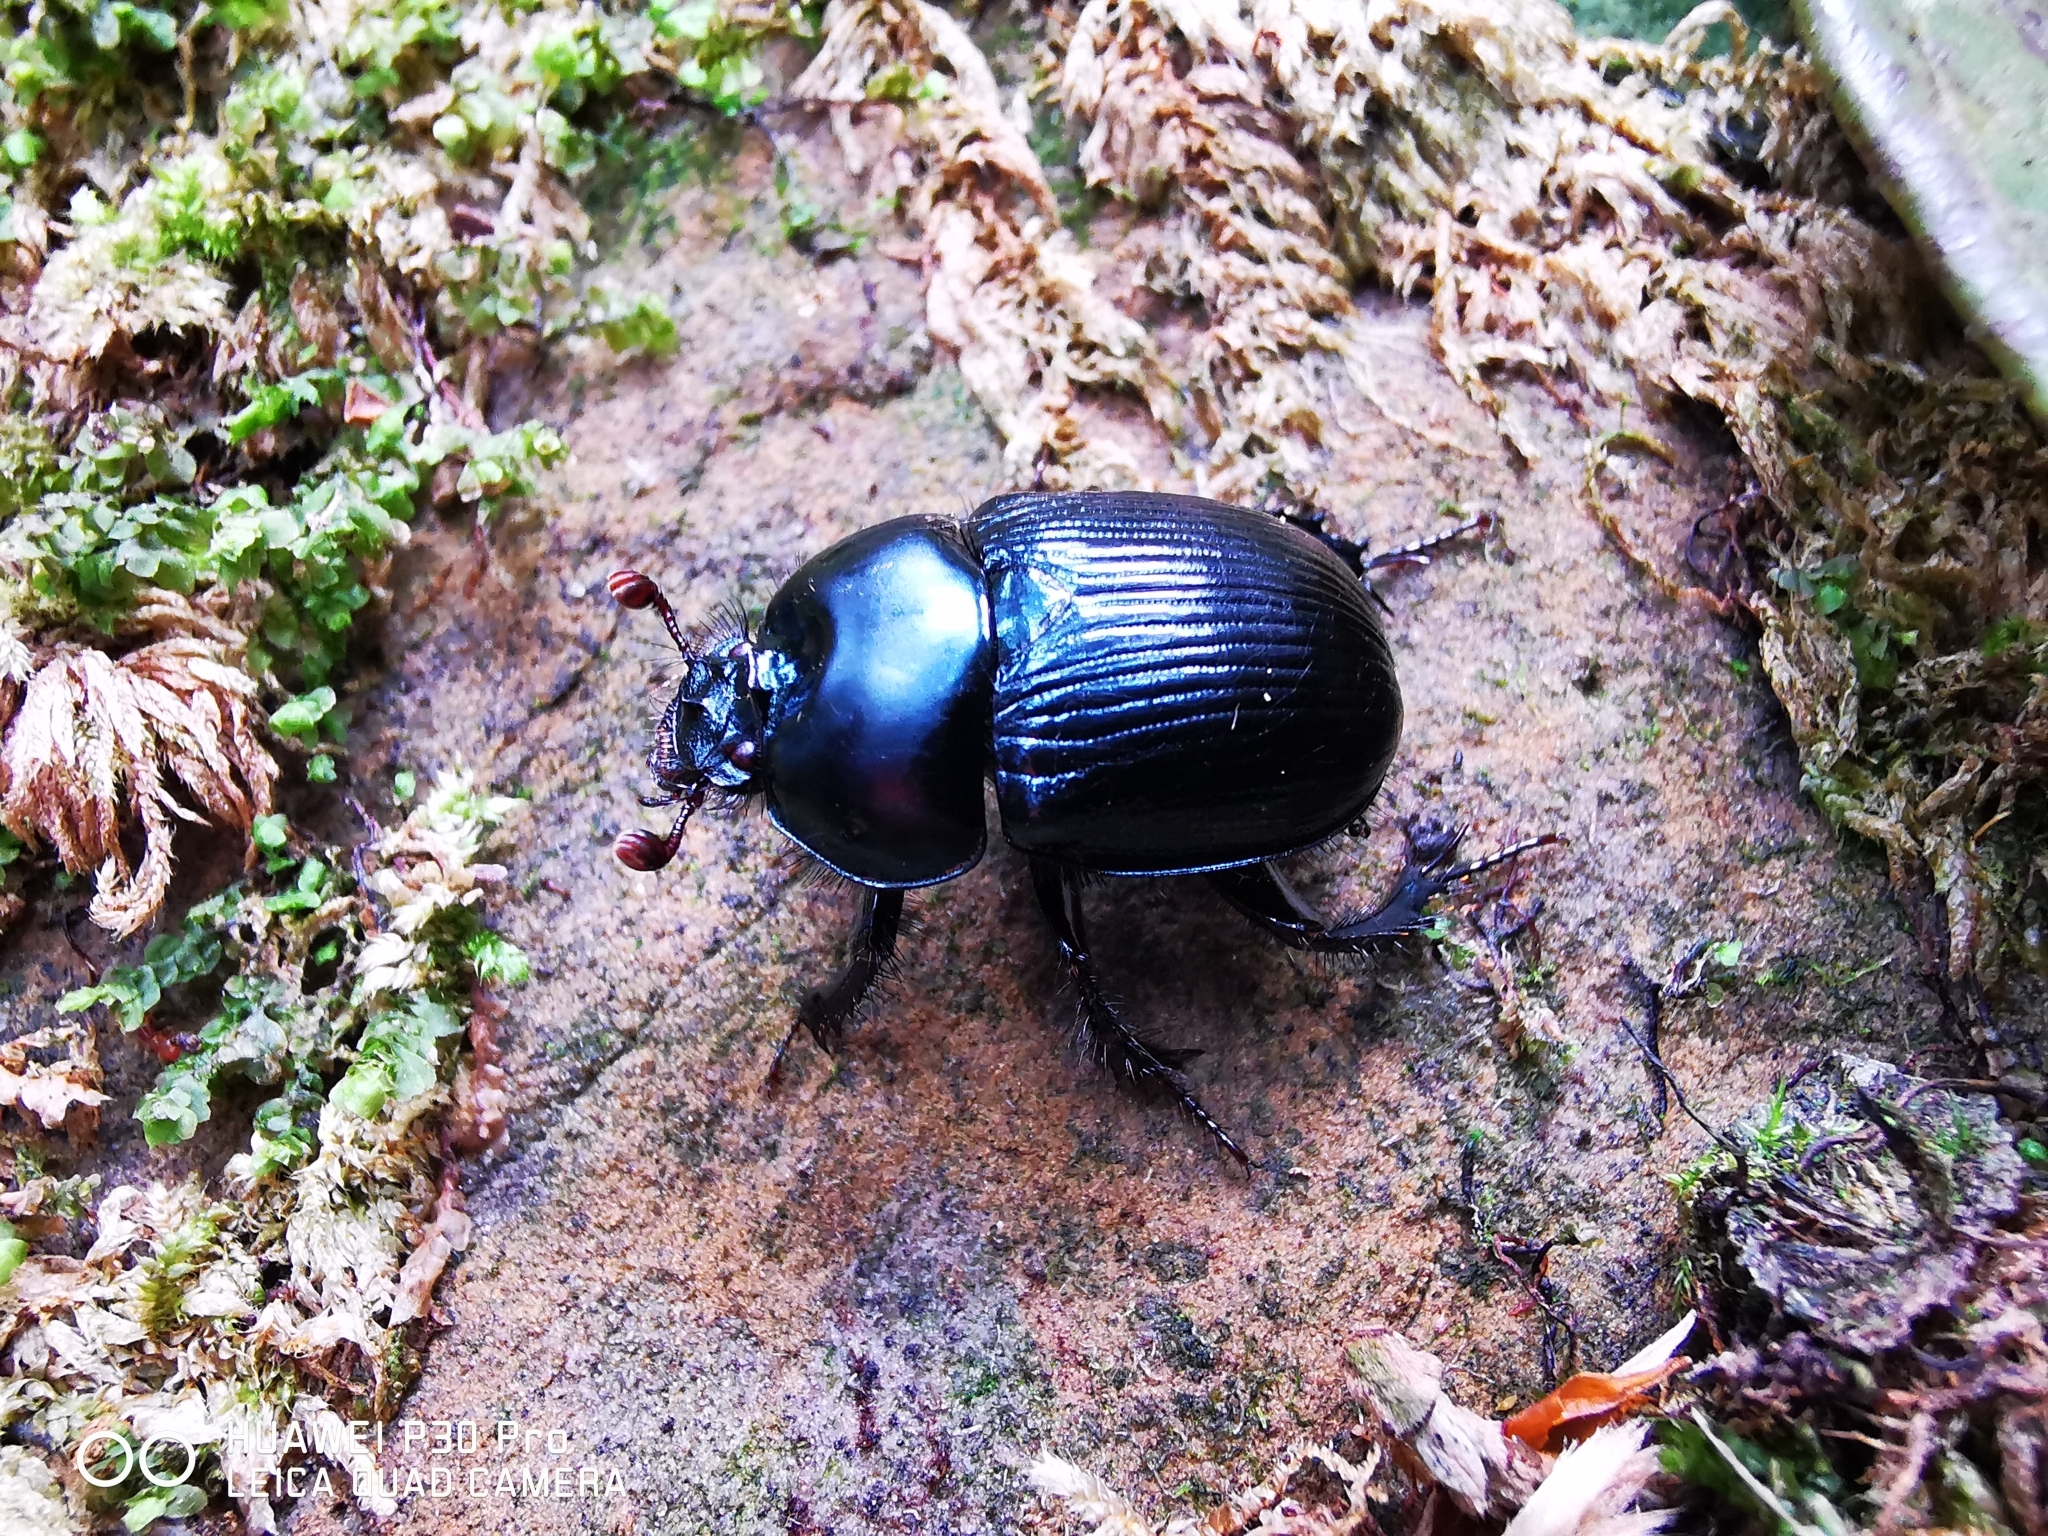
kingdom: Animalia
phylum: Arthropoda
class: Insecta
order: Coleoptera
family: Geotrupidae
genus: Phelotrupes
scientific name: Phelotrupes insulanus
